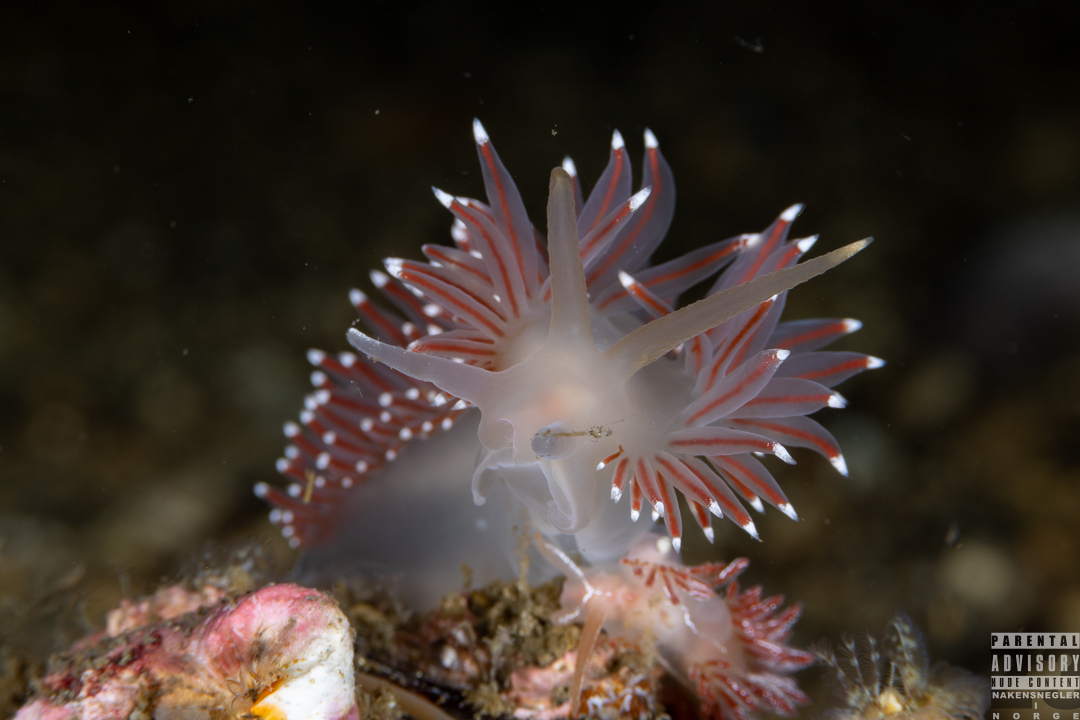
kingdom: Animalia
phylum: Mollusca
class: Gastropoda
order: Nudibranchia
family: Coryphellidae
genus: Coryphella
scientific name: Coryphella browni
